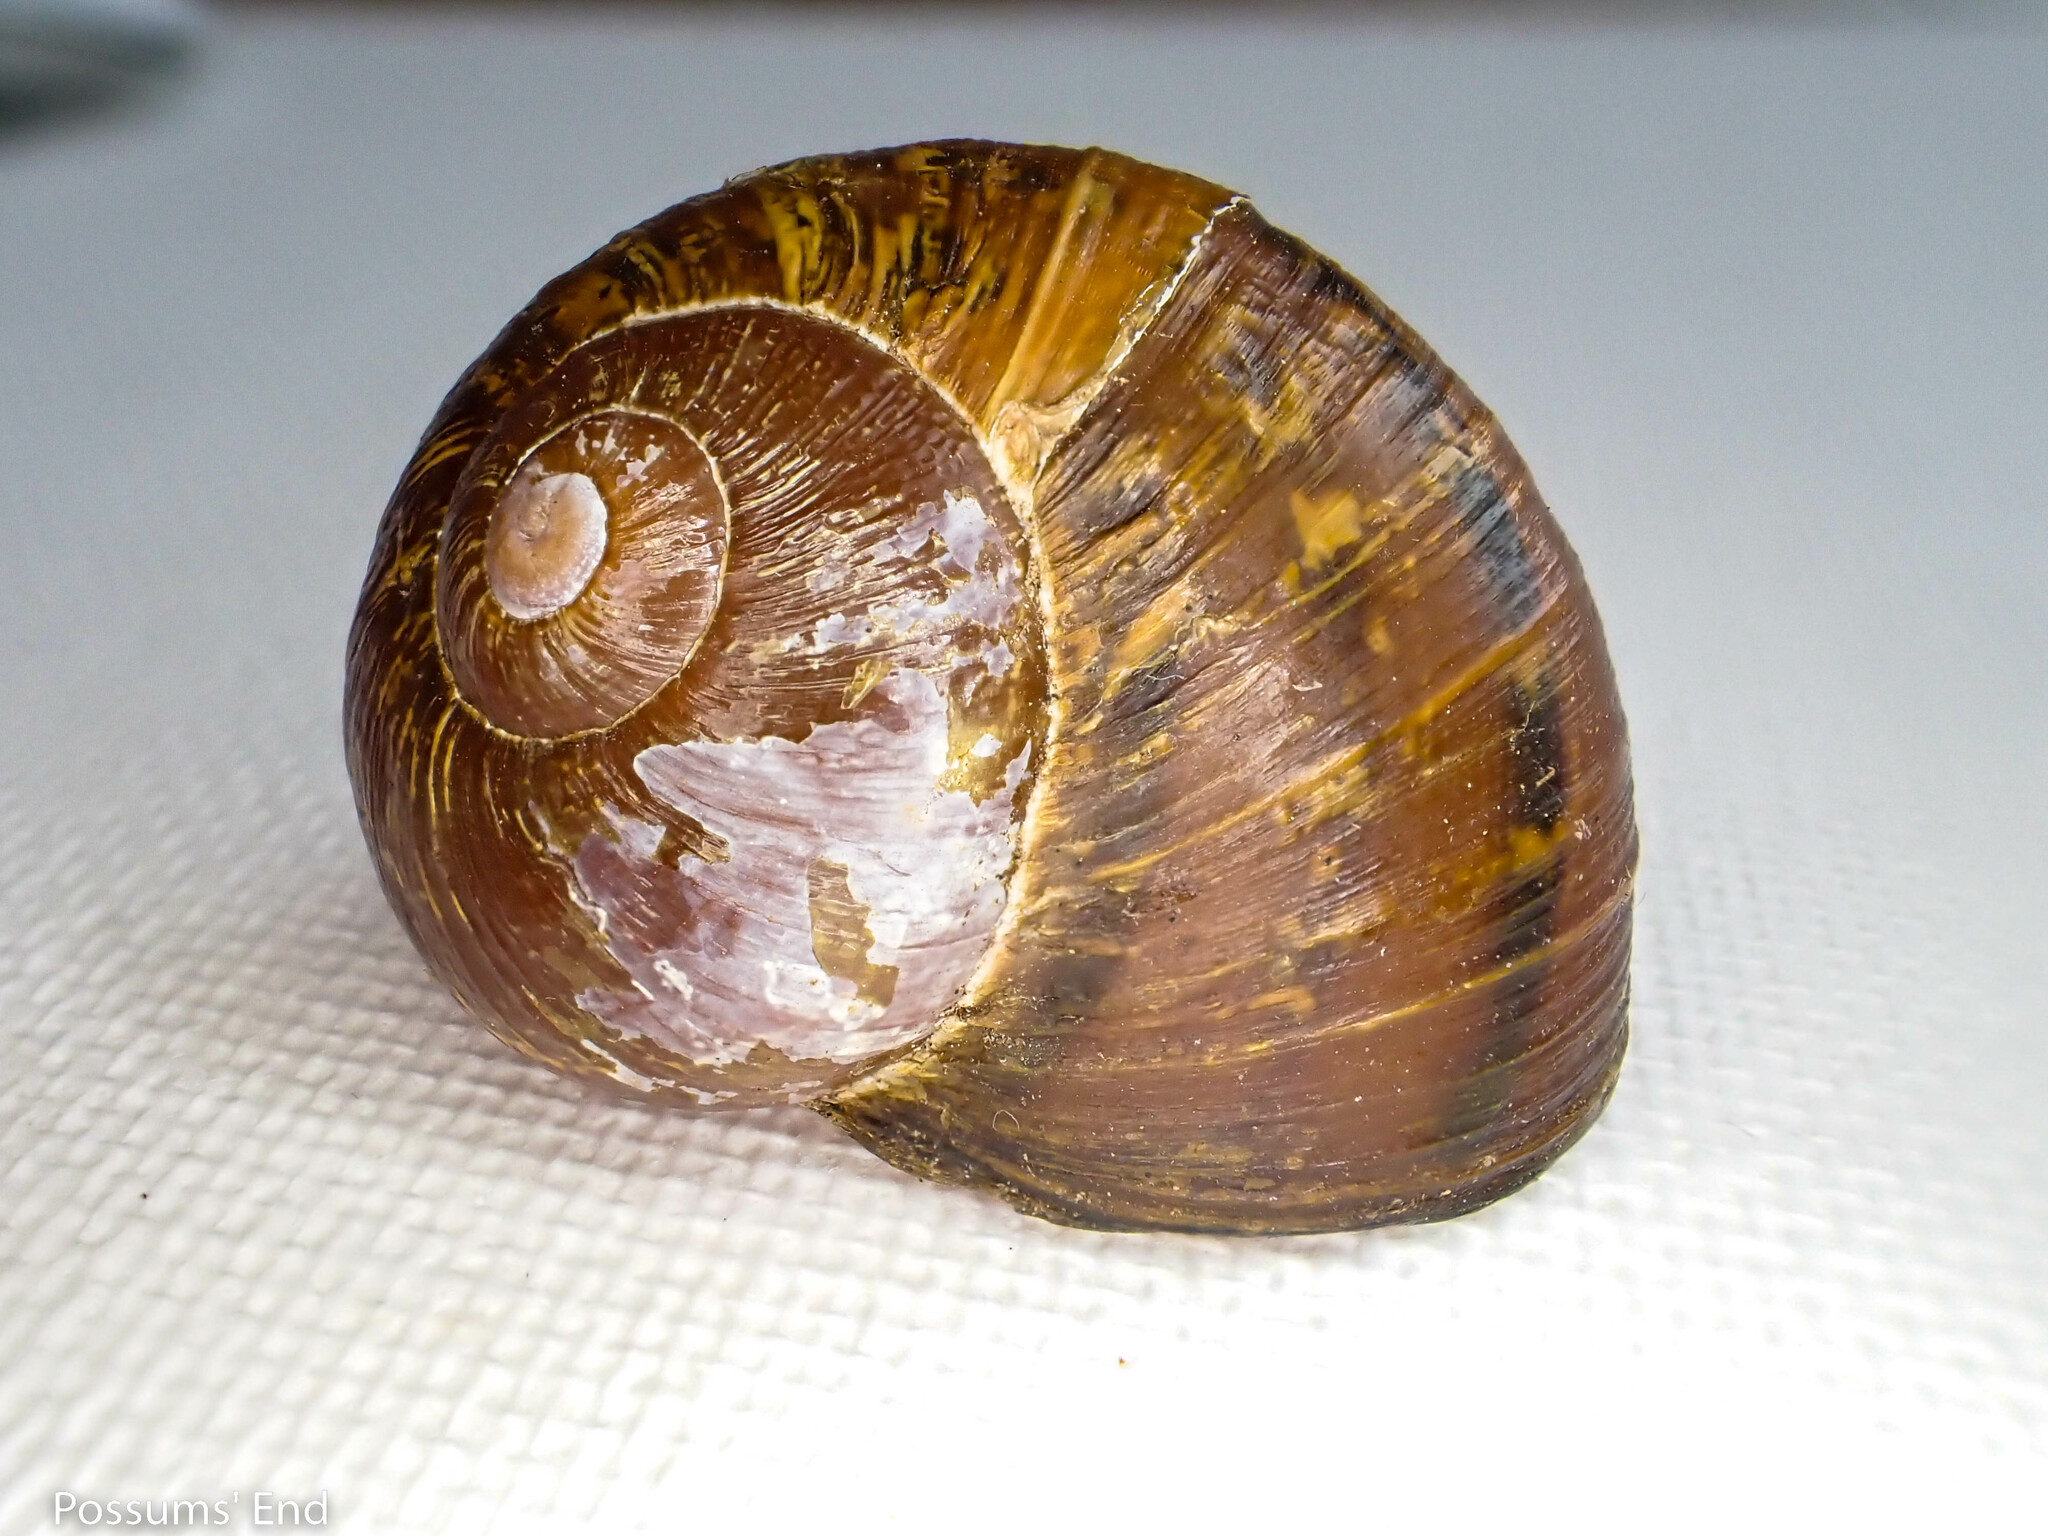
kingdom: Animalia
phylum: Mollusca
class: Gastropoda
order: Stylommatophora
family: Helicidae
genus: Cornu
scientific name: Cornu aspersum
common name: Brown garden snail
